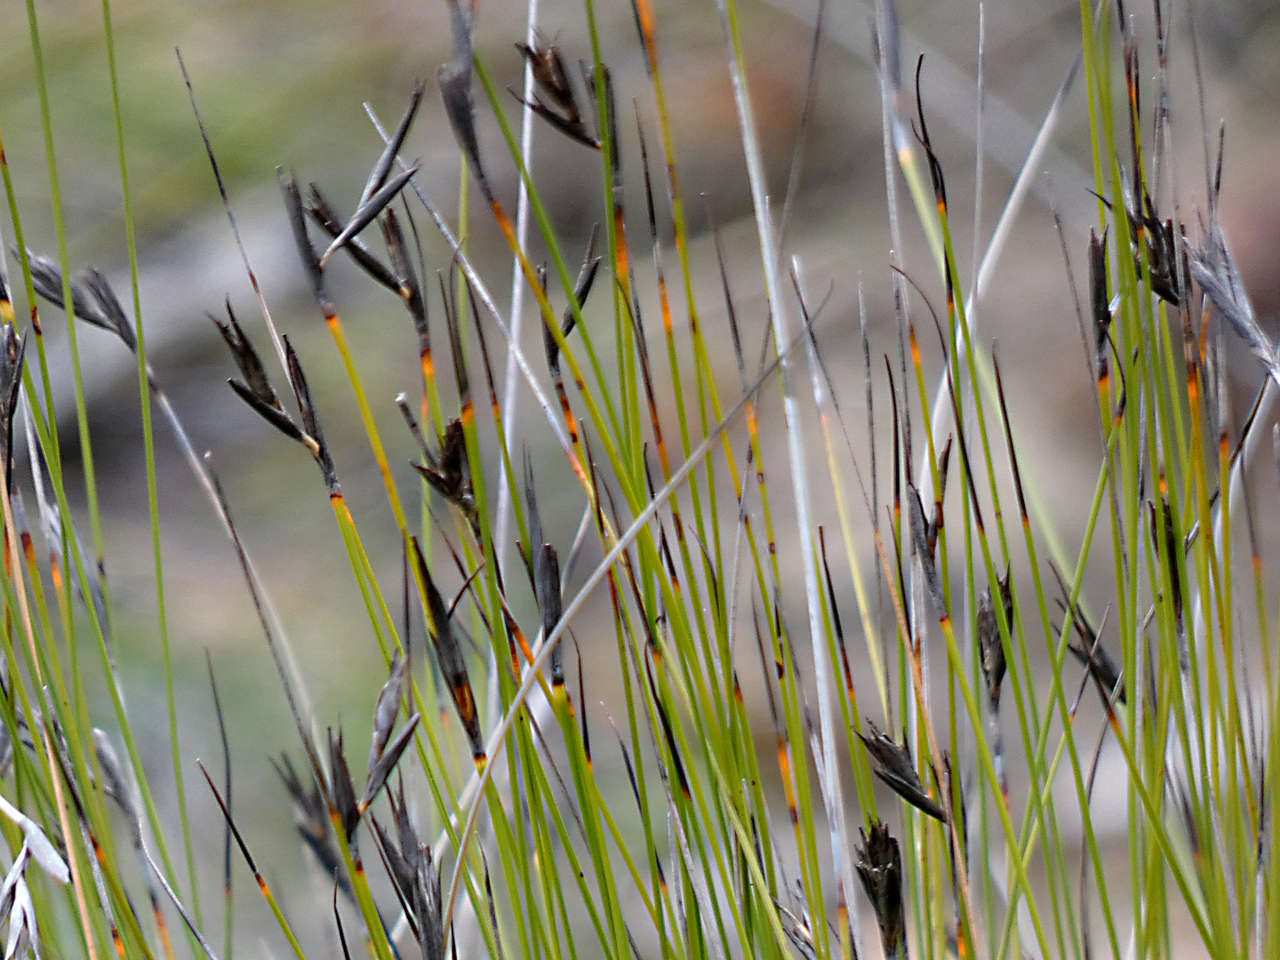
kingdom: Plantae
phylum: Tracheophyta
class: Liliopsida
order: Poales
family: Cyperaceae
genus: Lepidosperma
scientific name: Lepidosperma carphoides
